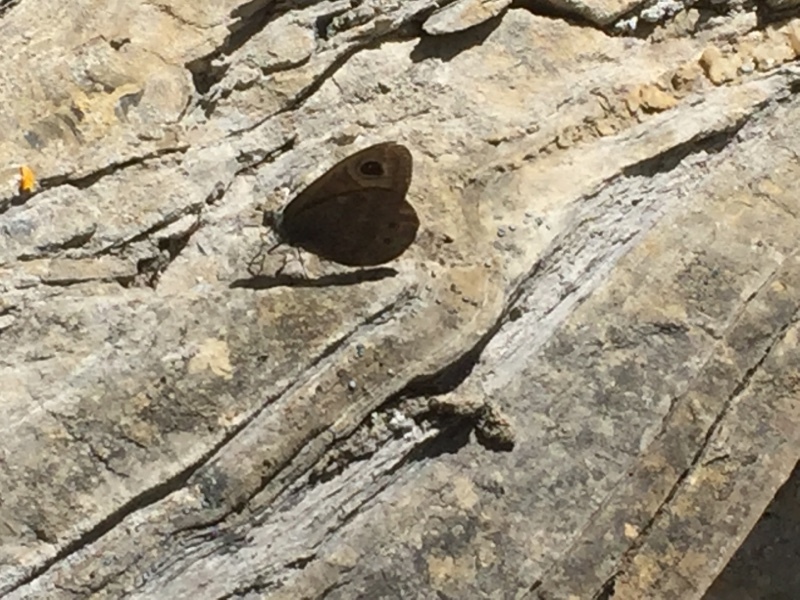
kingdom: Animalia
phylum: Arthropoda
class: Insecta
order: Lepidoptera
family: Nymphalidae
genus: Pararge
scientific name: Pararge Lasiommata maera
